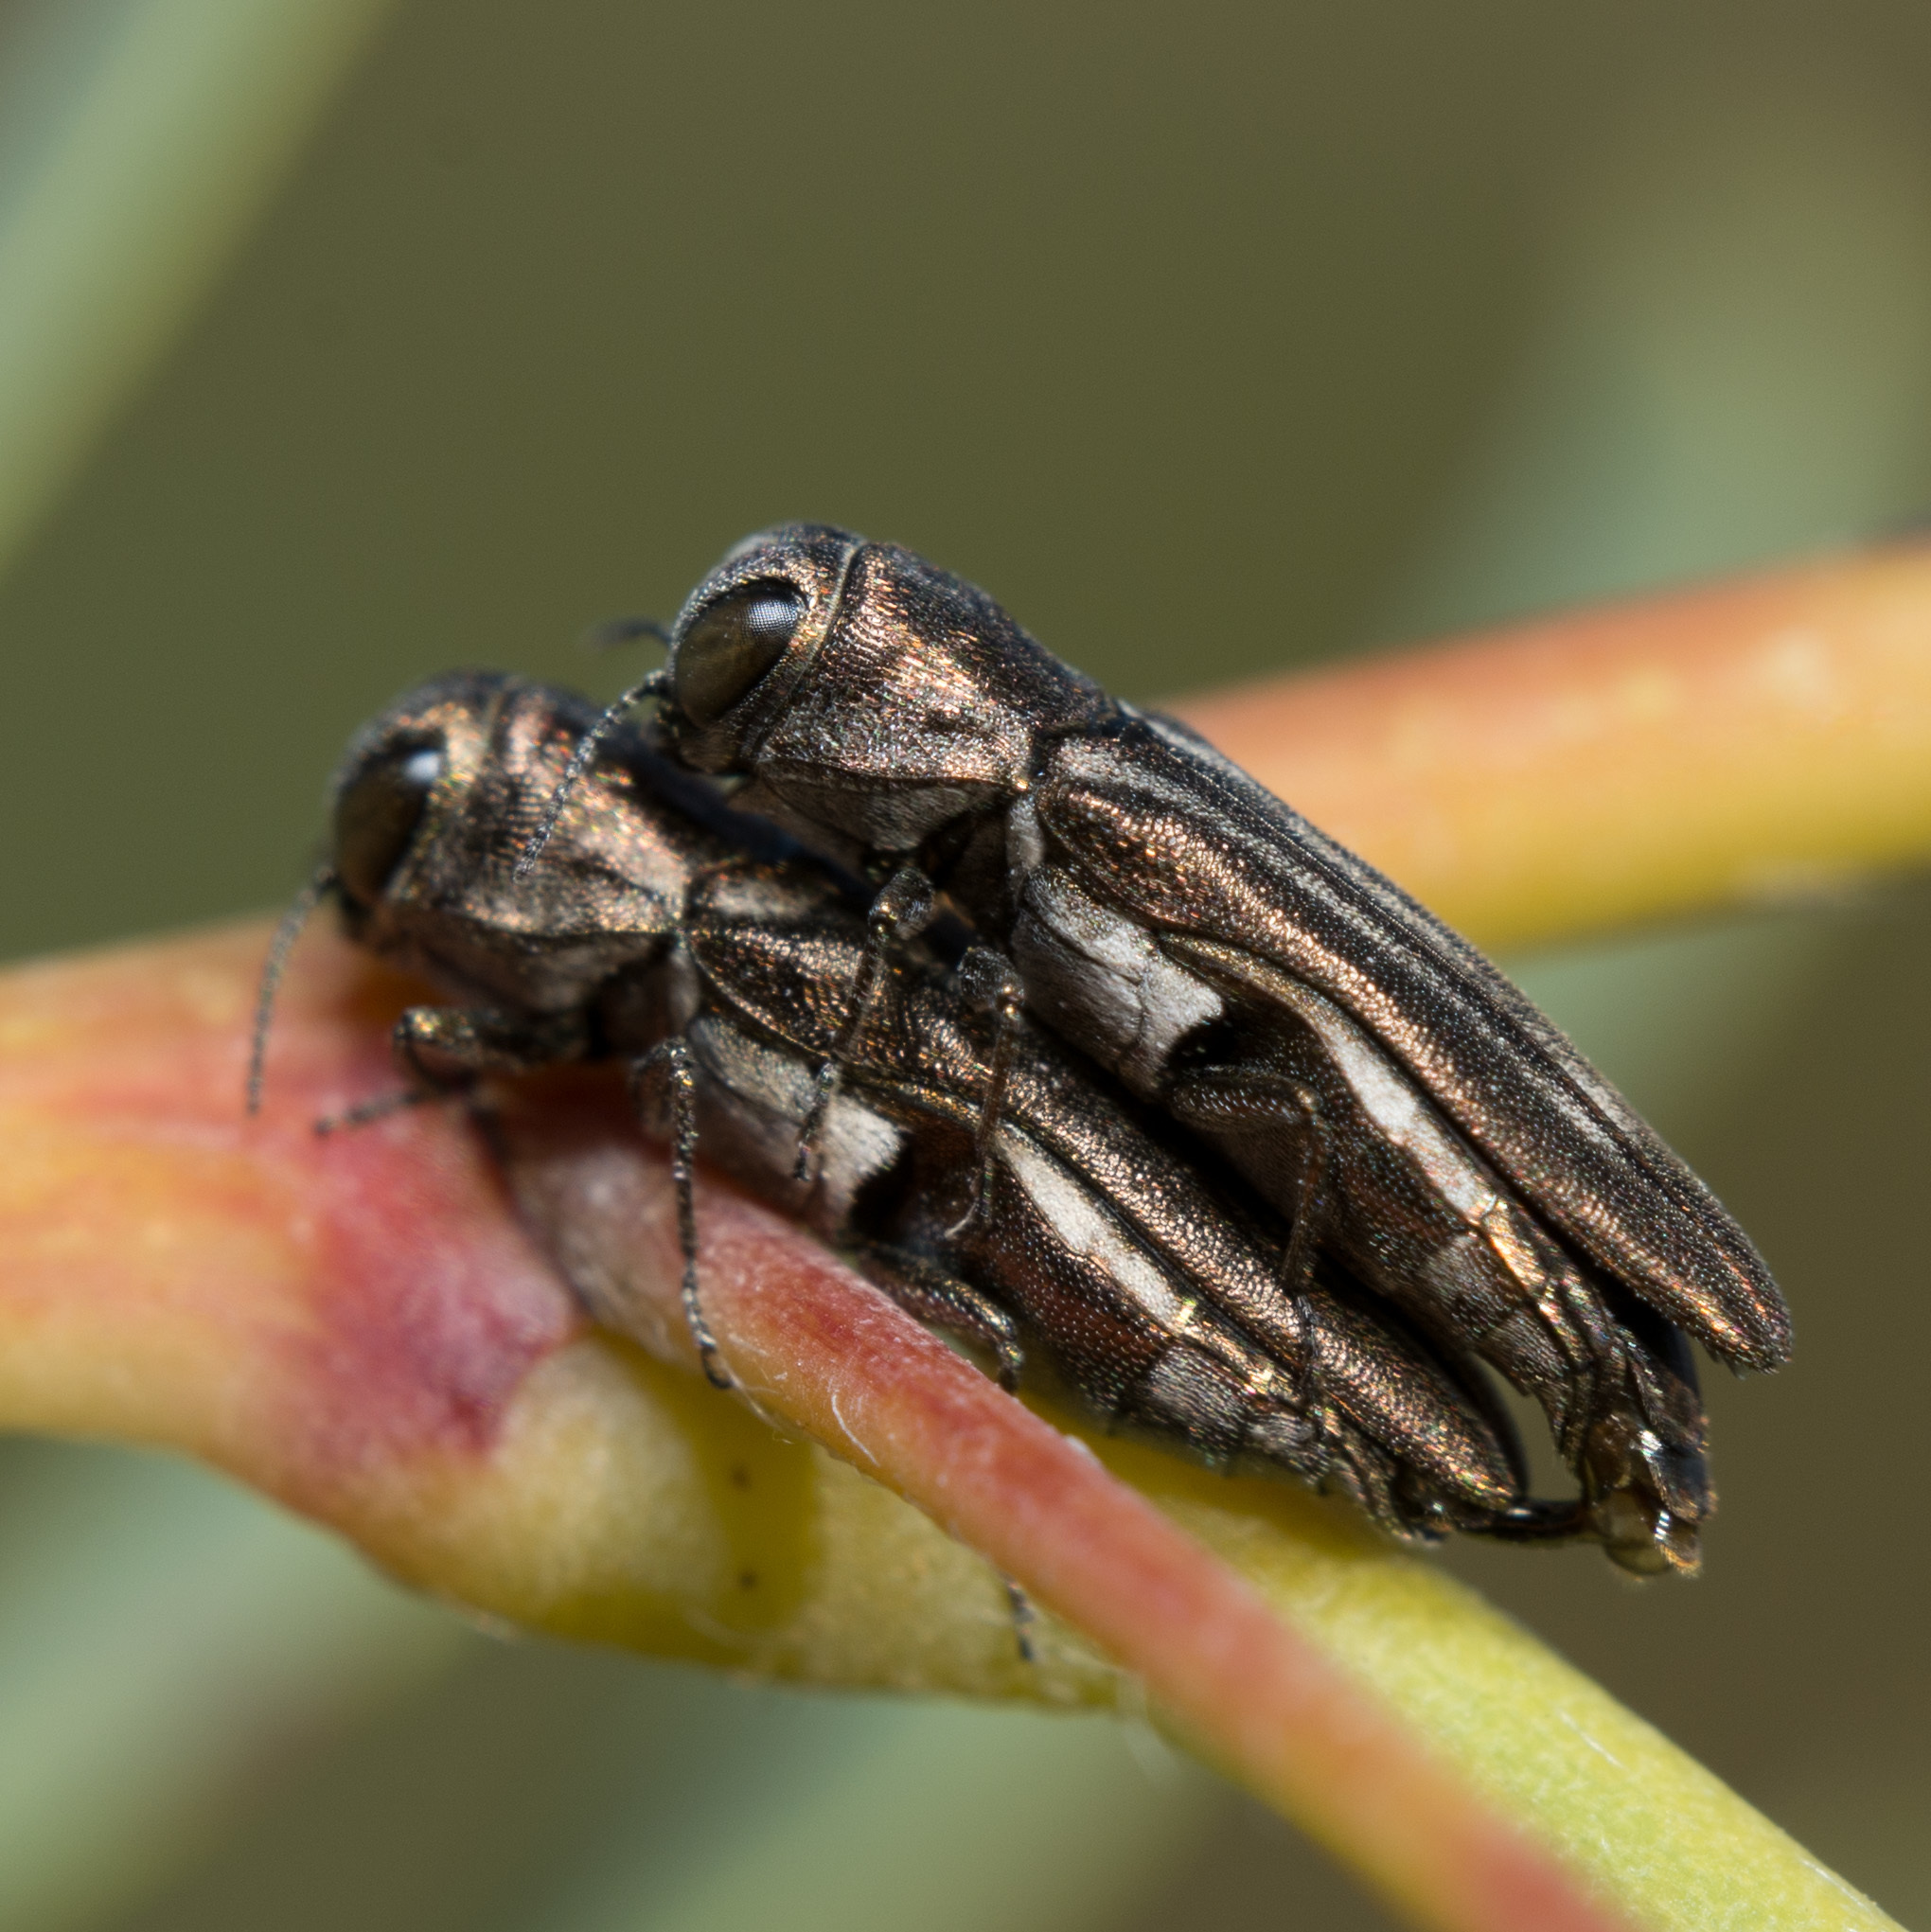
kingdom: Animalia
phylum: Arthropoda
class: Insecta
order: Coleoptera
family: Buprestidae
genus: Agrilus
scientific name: Agrilus addendus
